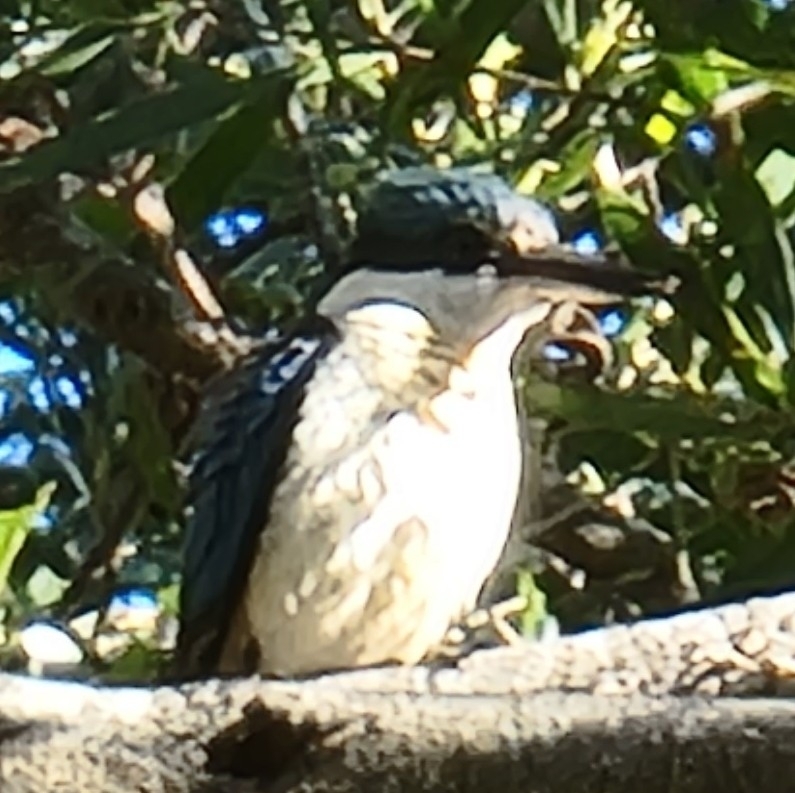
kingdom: Animalia
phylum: Chordata
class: Aves
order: Coraciiformes
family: Alcedinidae
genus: Todiramphus
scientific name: Todiramphus sanctus
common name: Sacred kingfisher
